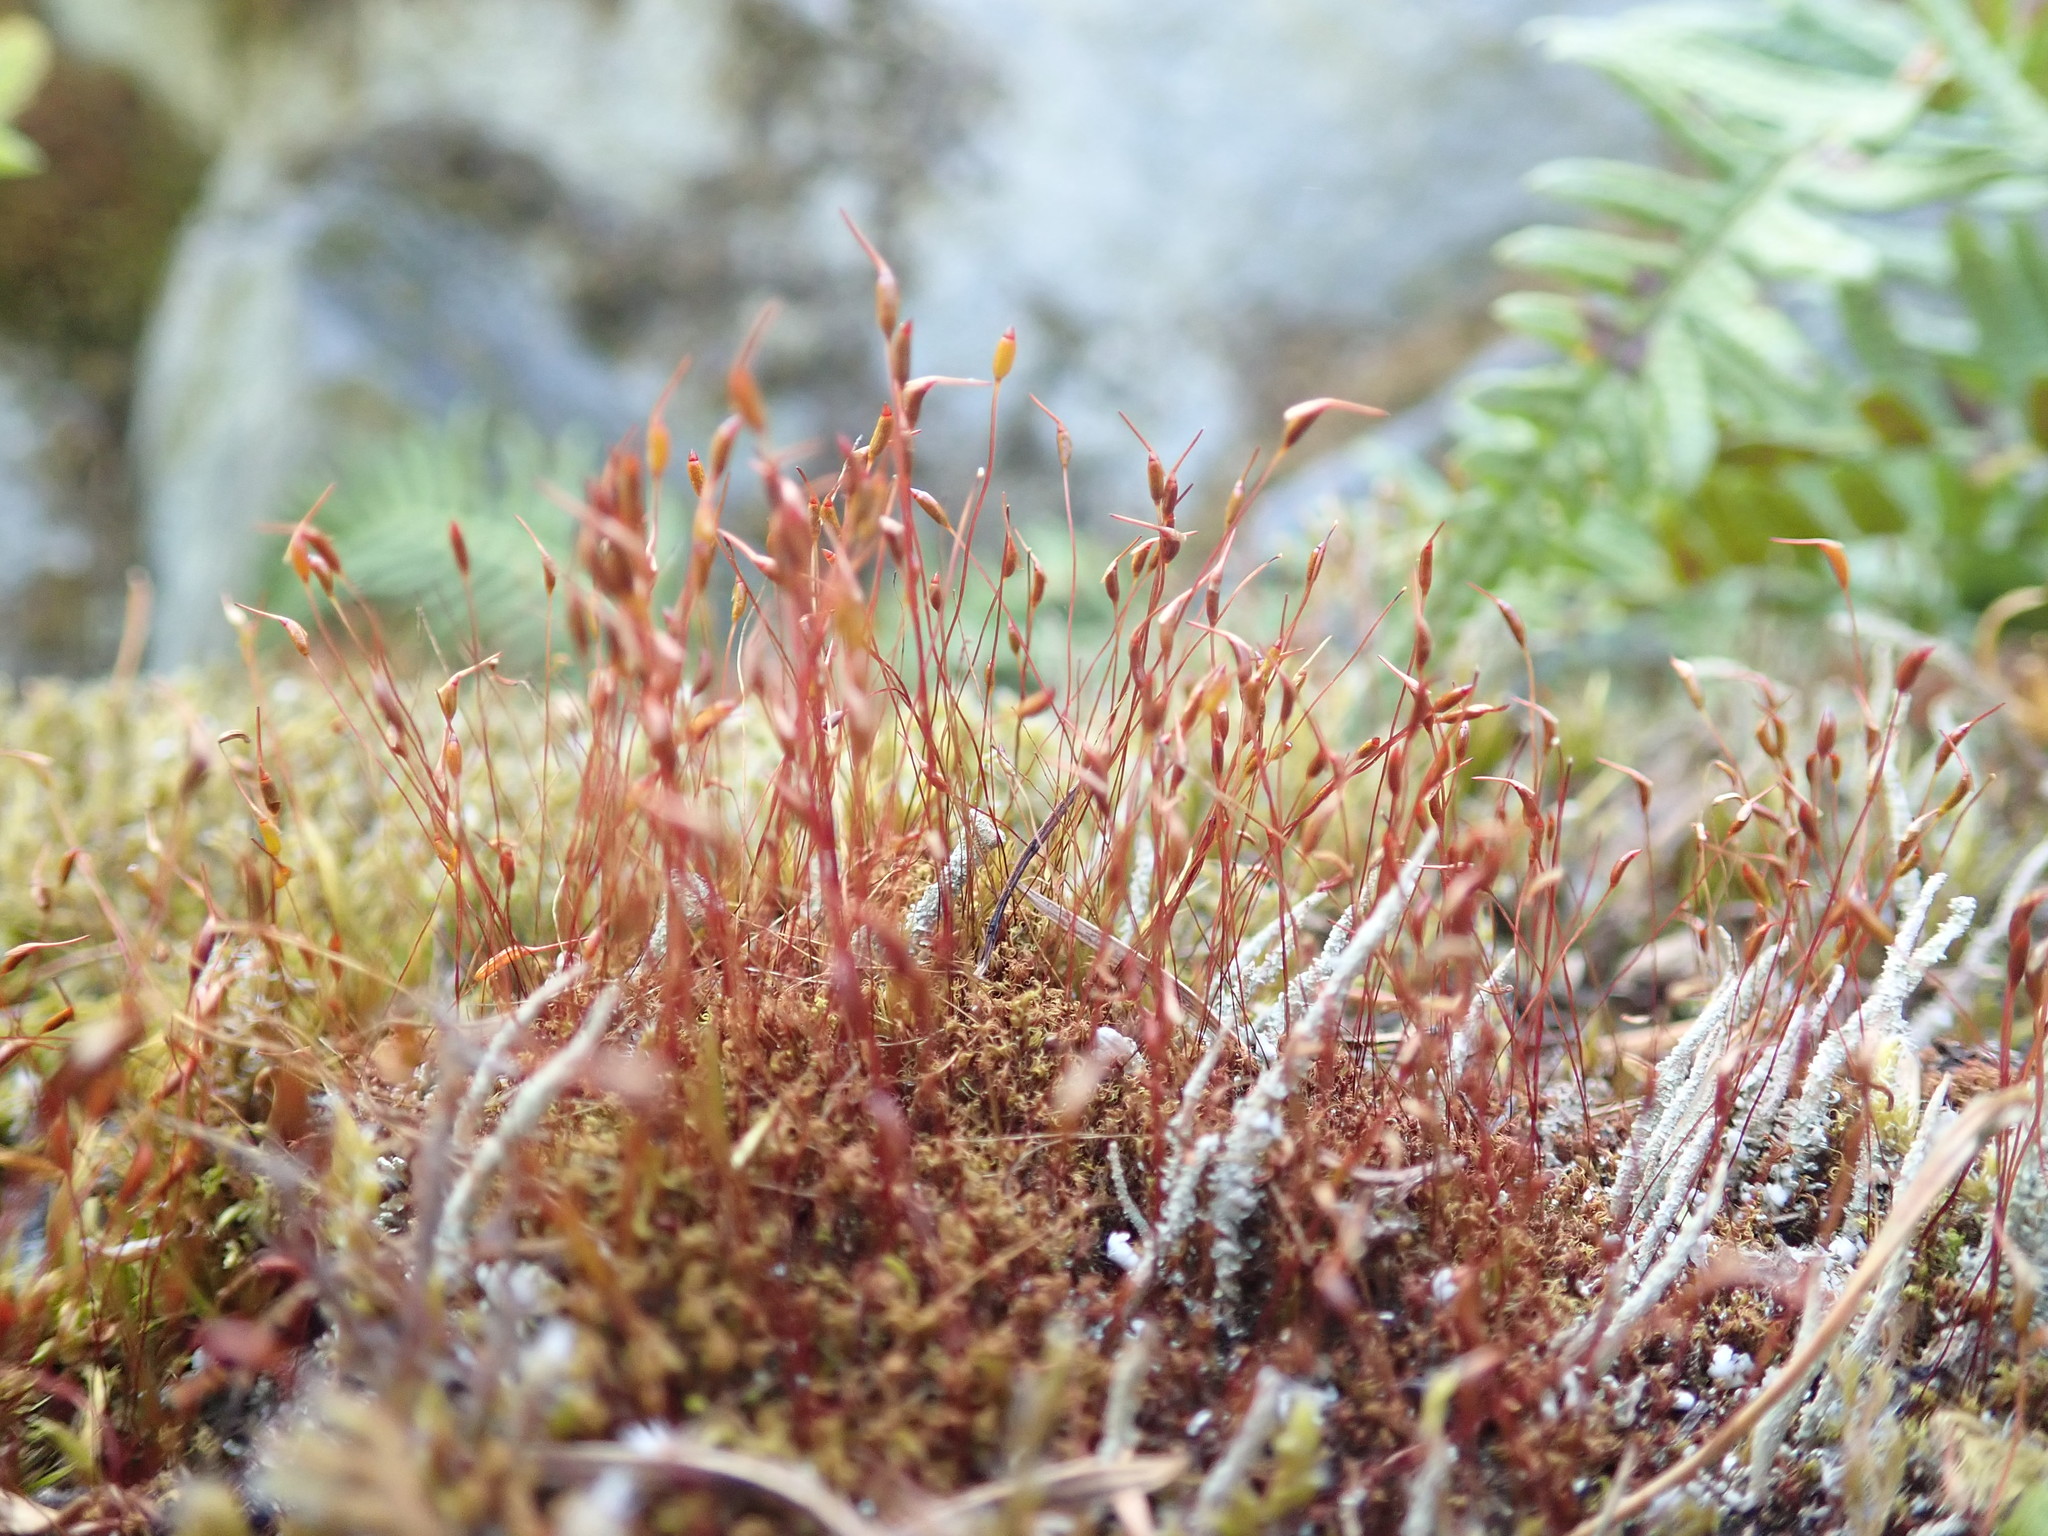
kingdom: Plantae
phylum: Bryophyta
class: Bryopsida
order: Dicranales
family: Ditrichaceae
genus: Ceratodon
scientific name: Ceratodon purpureus
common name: Redshank
